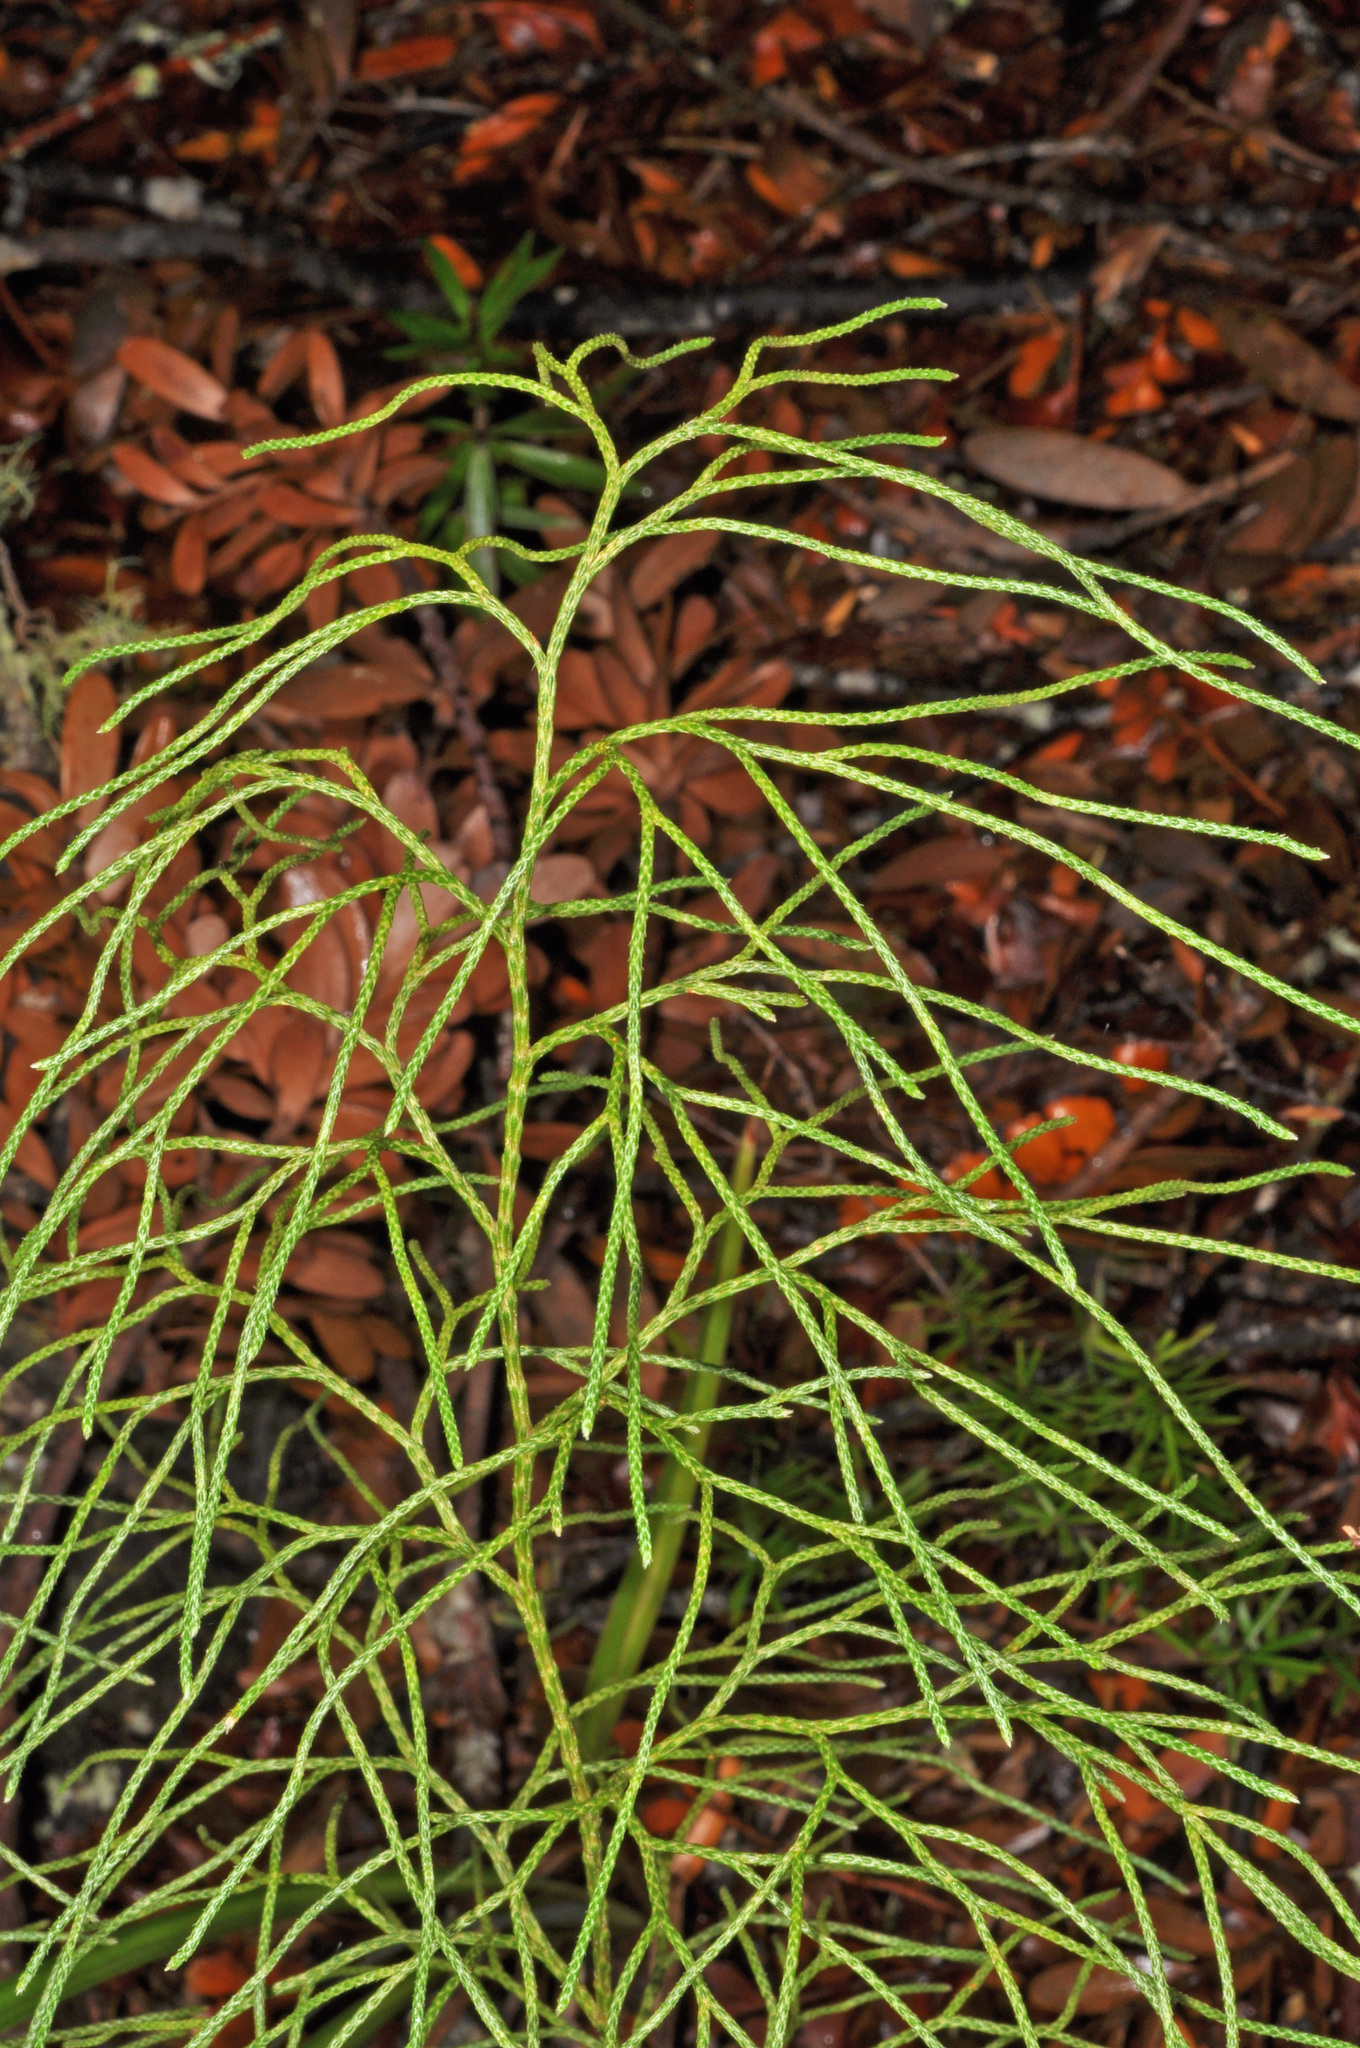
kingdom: Plantae
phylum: Tracheophyta
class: Lycopodiopsida
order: Lycopodiales
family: Lycopodiaceae
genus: Pseudolycopodium
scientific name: Pseudolycopodium densum
